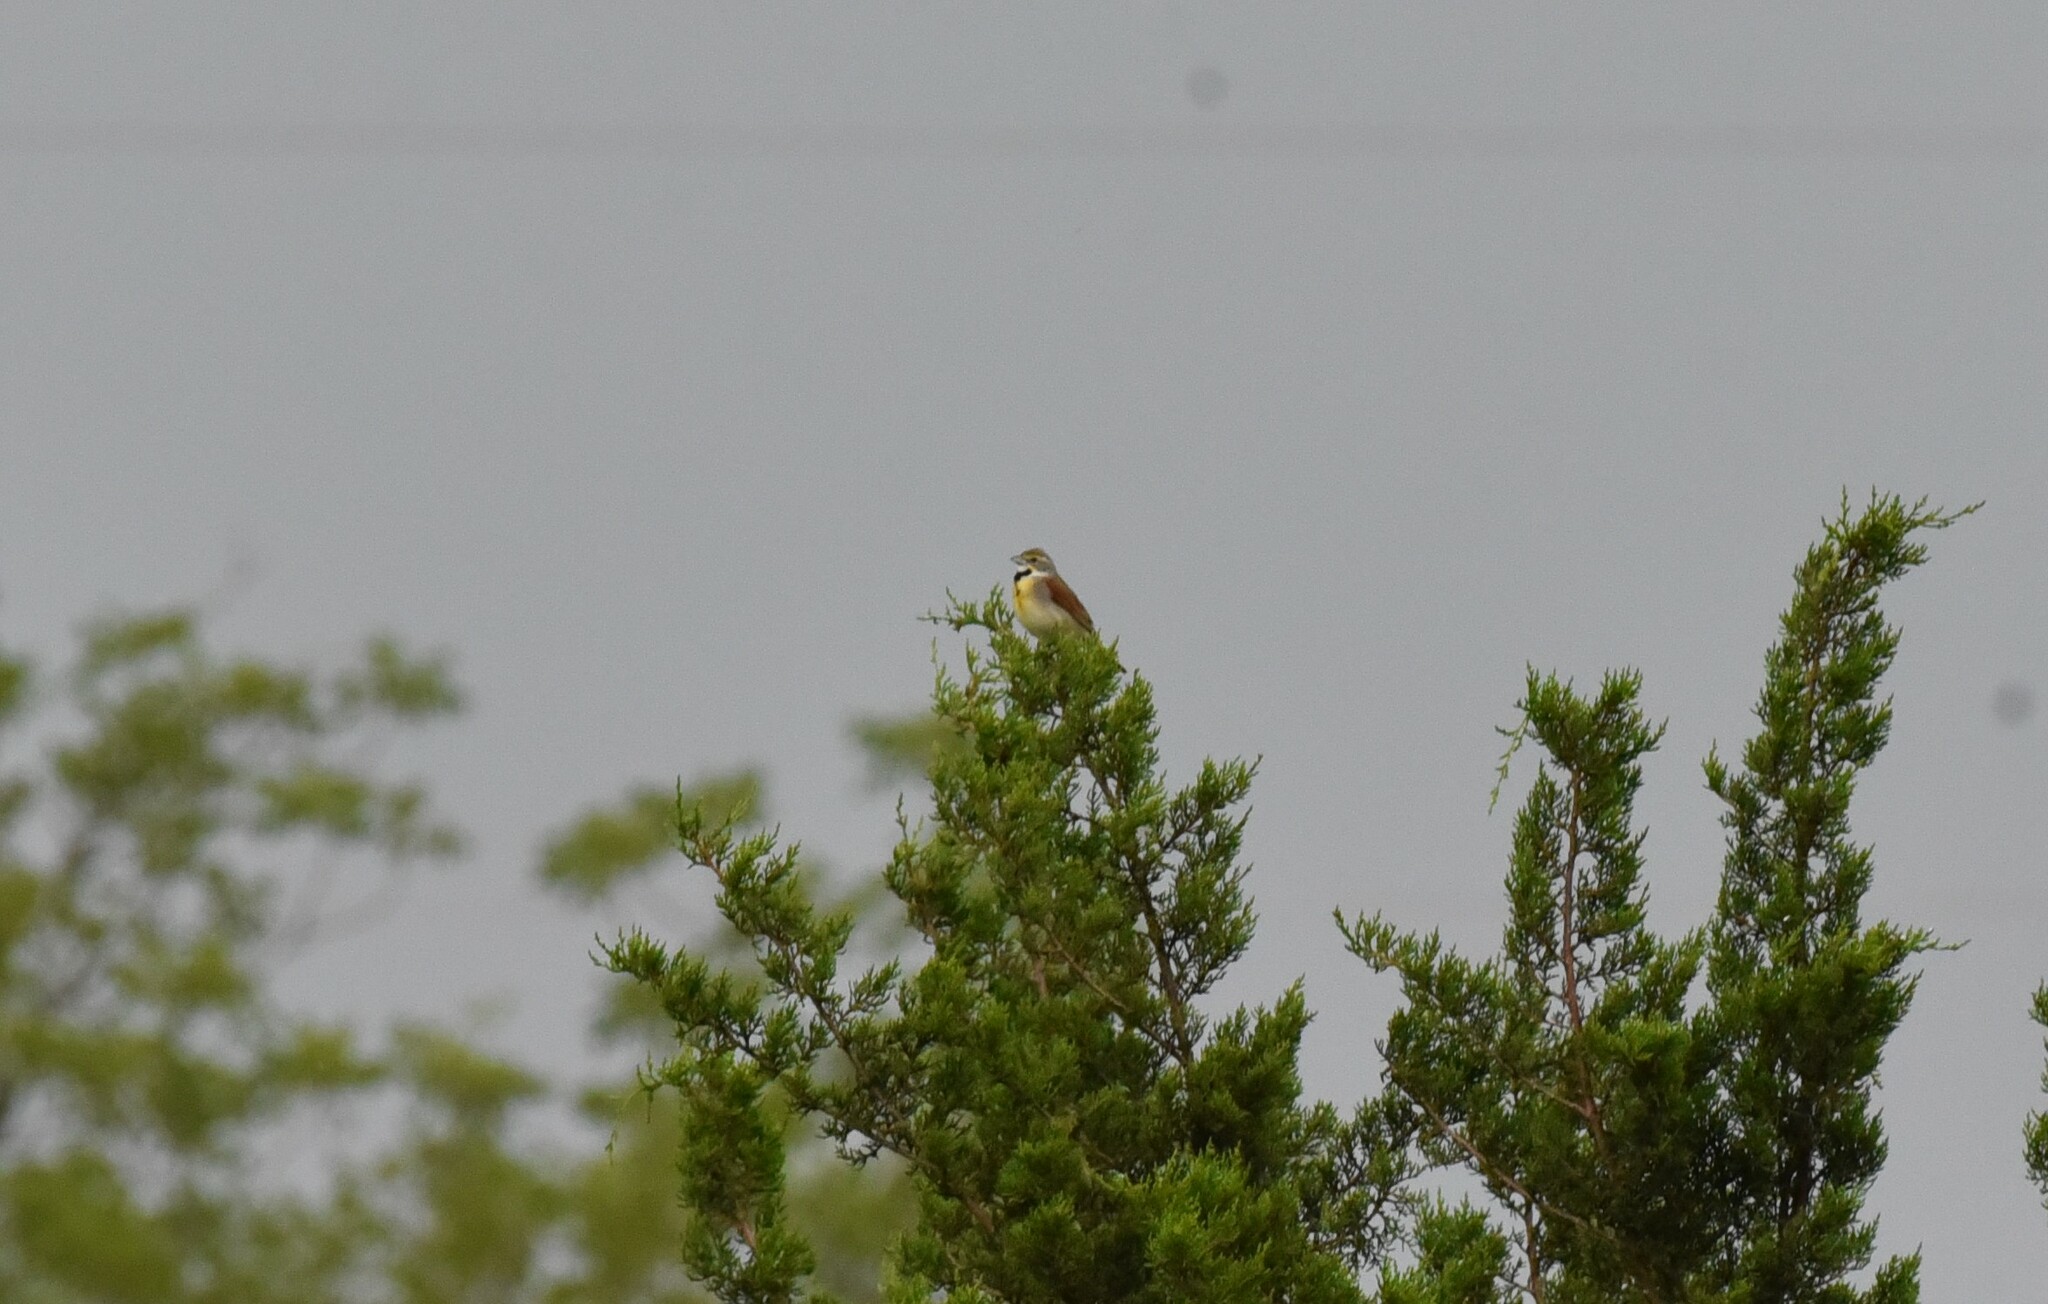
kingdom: Animalia
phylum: Chordata
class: Aves
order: Passeriformes
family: Cardinalidae
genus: Spiza
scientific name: Spiza americana
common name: Dickcissel
